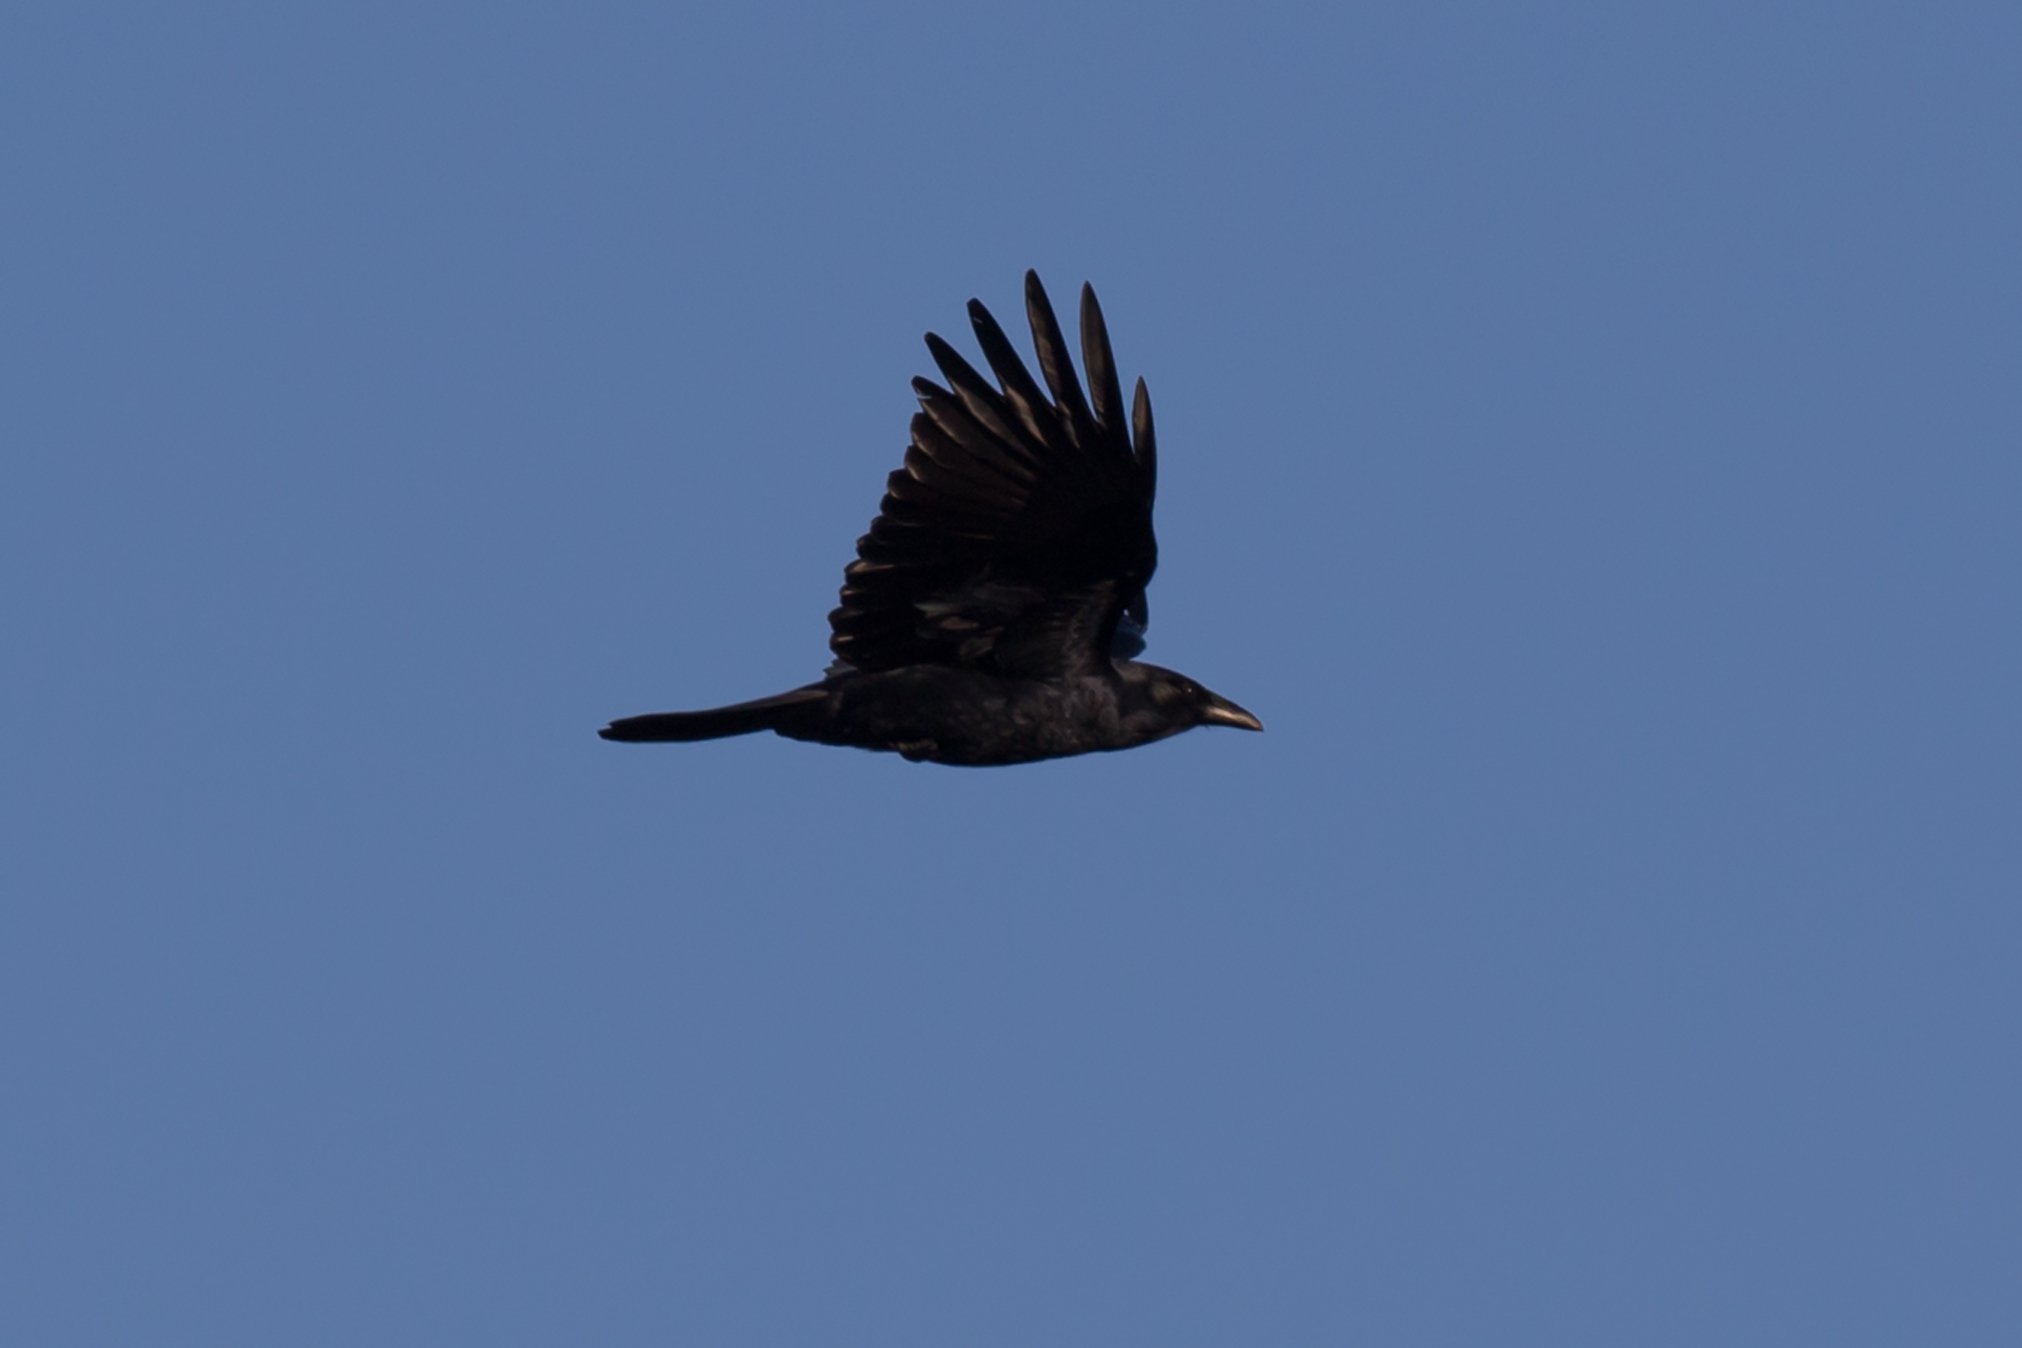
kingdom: Animalia
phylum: Chordata
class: Aves
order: Passeriformes
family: Corvidae
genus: Corvus
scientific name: Corvus ossifragus
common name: Fish crow
